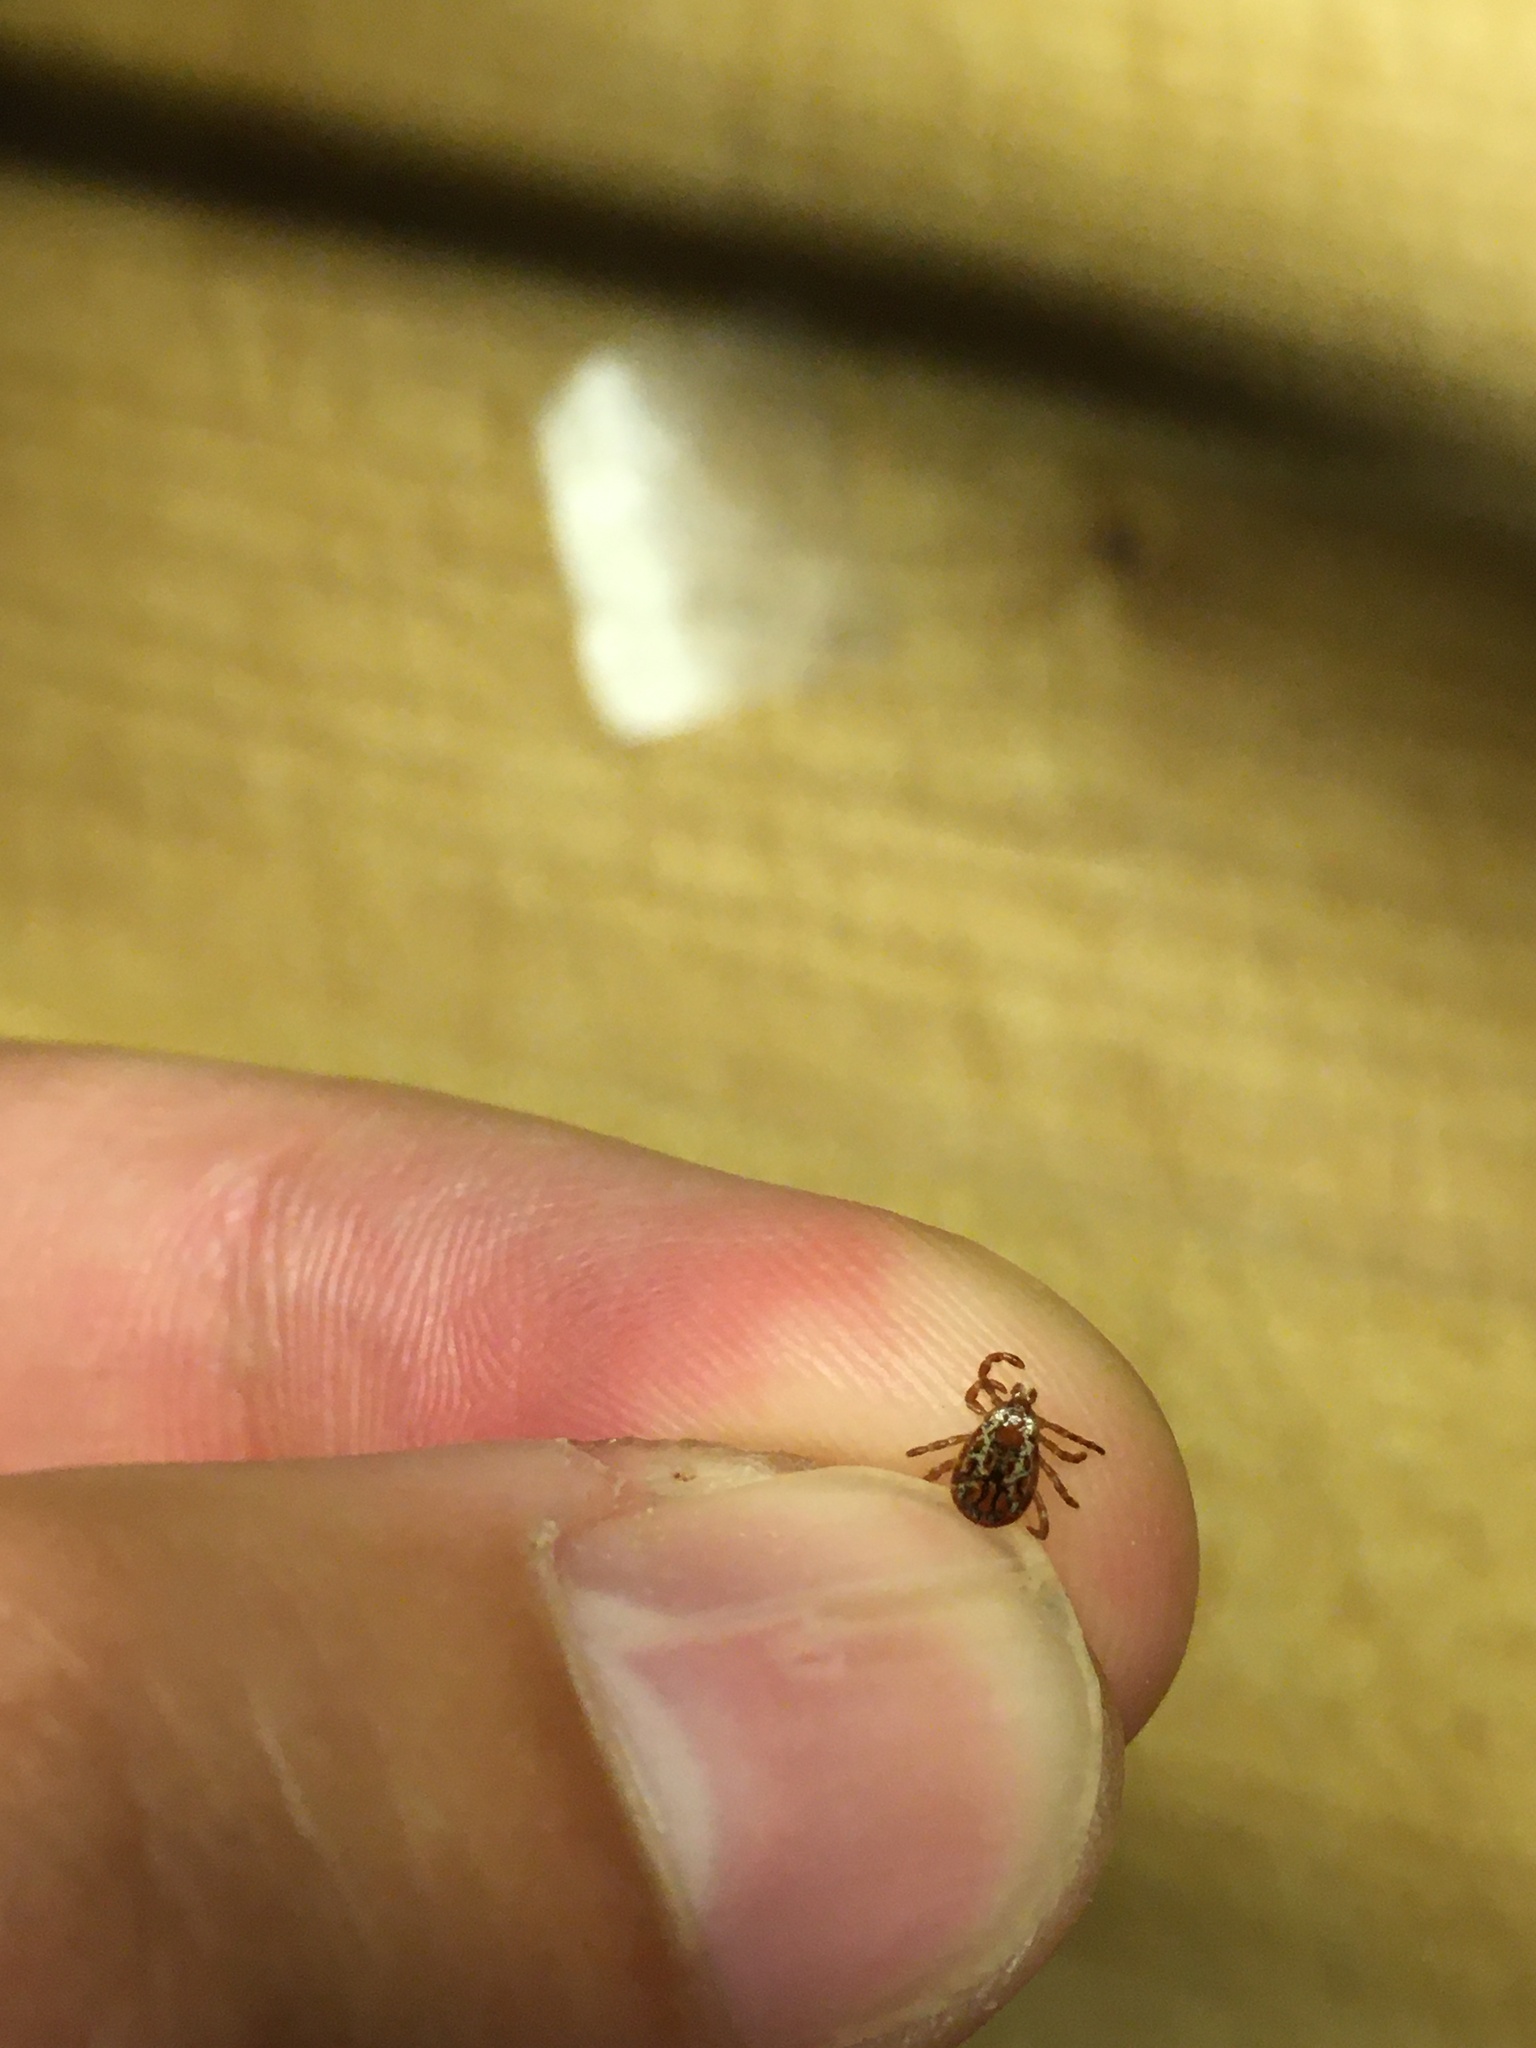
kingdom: Animalia
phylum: Arthropoda
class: Arachnida
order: Ixodida
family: Ixodidae
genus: Dermacentor
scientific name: Dermacentor variabilis
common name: American dog tick
